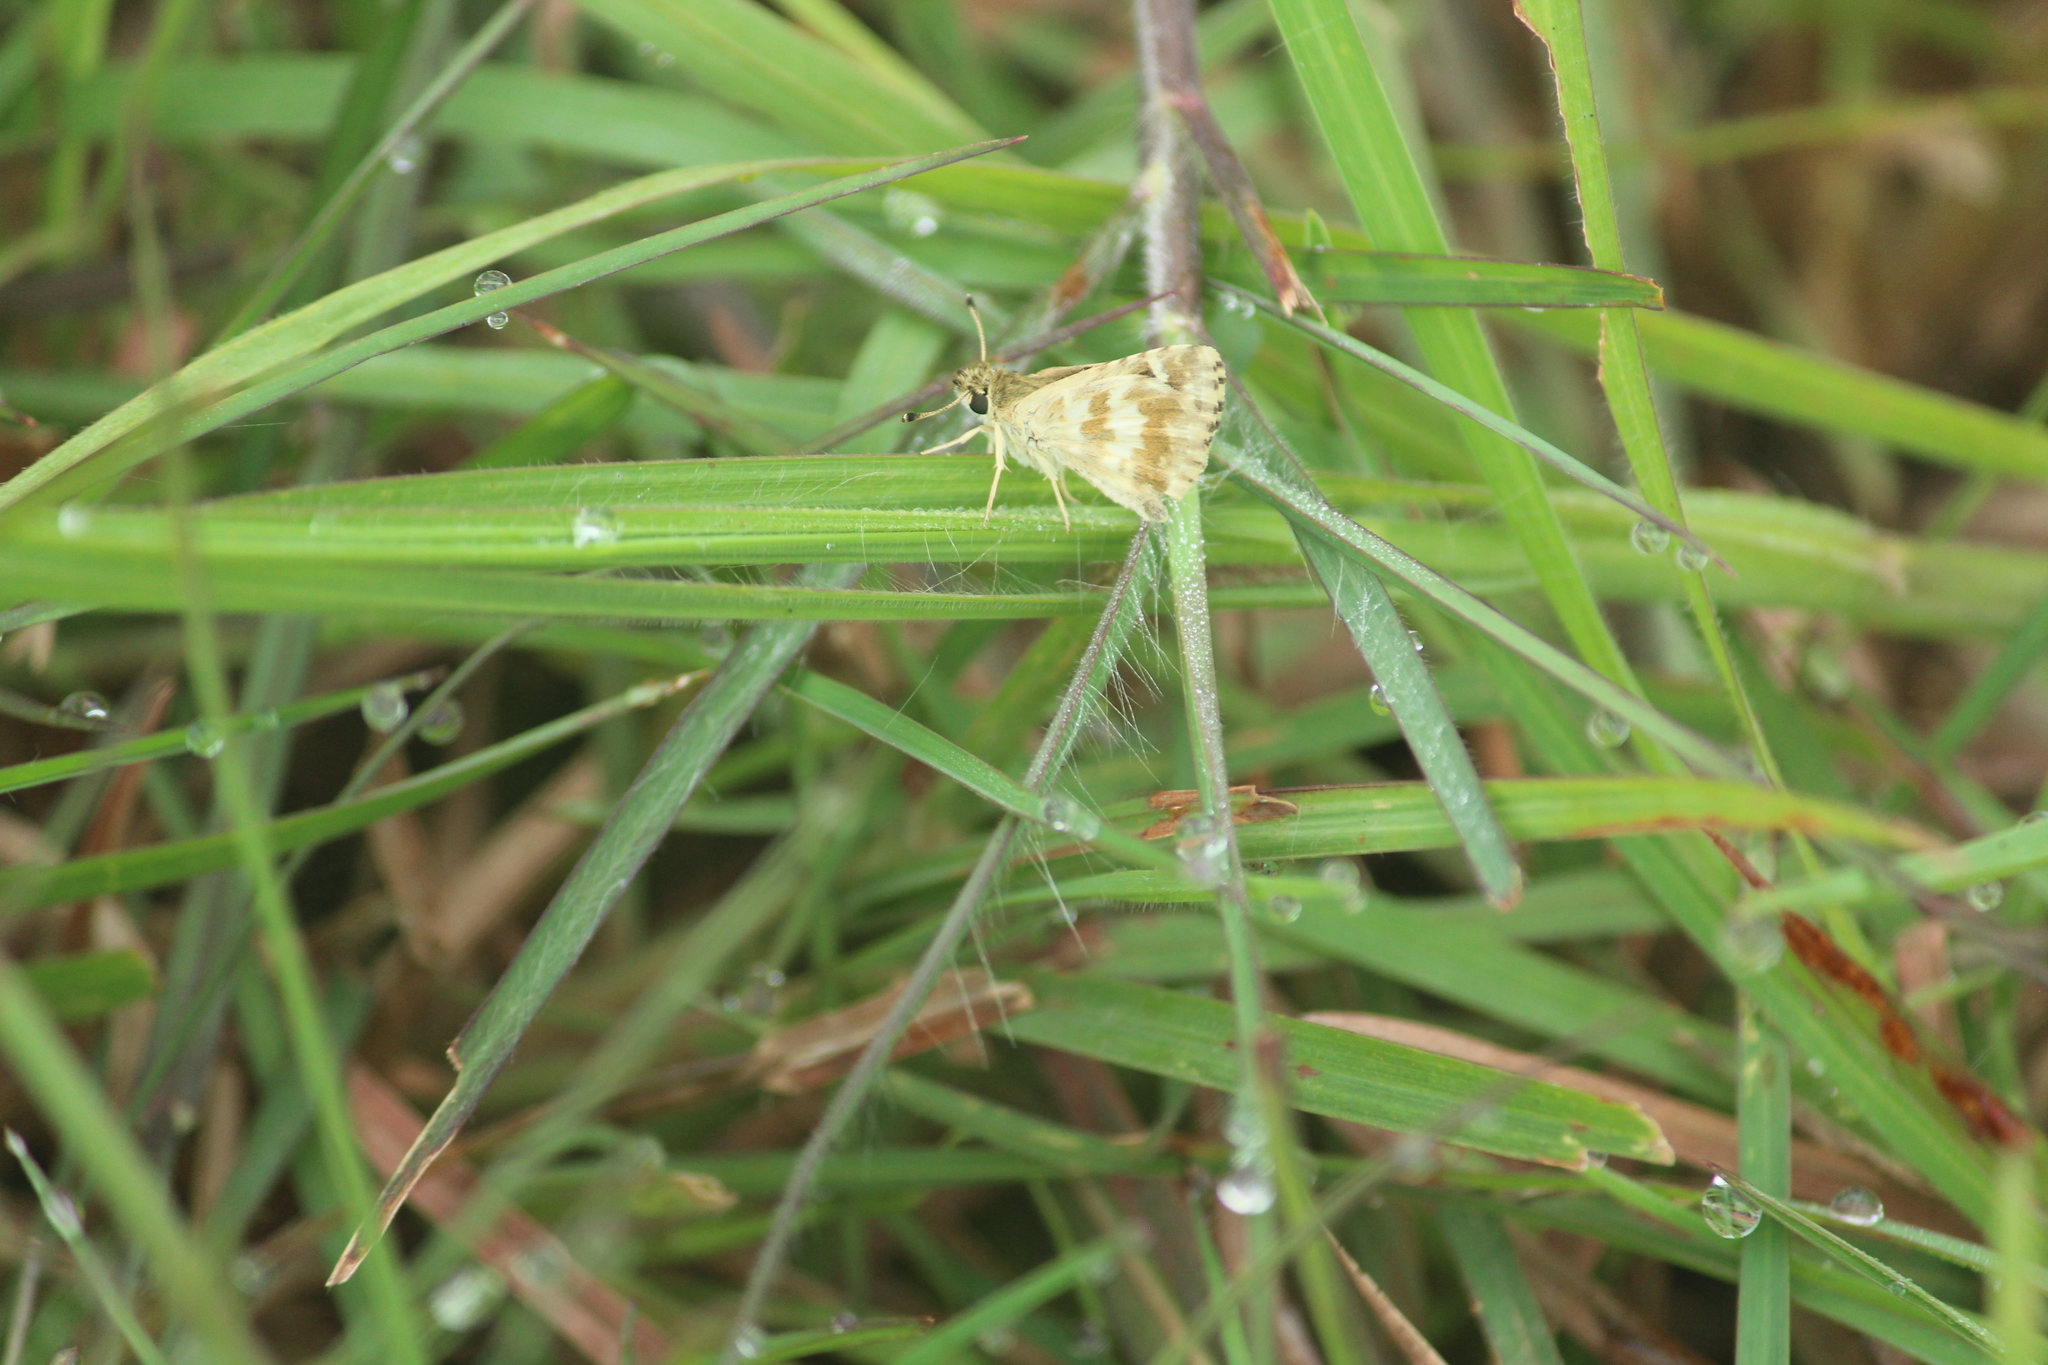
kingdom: Animalia
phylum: Arthropoda
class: Insecta
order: Lepidoptera
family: Hesperiidae
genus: Spialia
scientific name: Spialia galba
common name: Indian skipper
